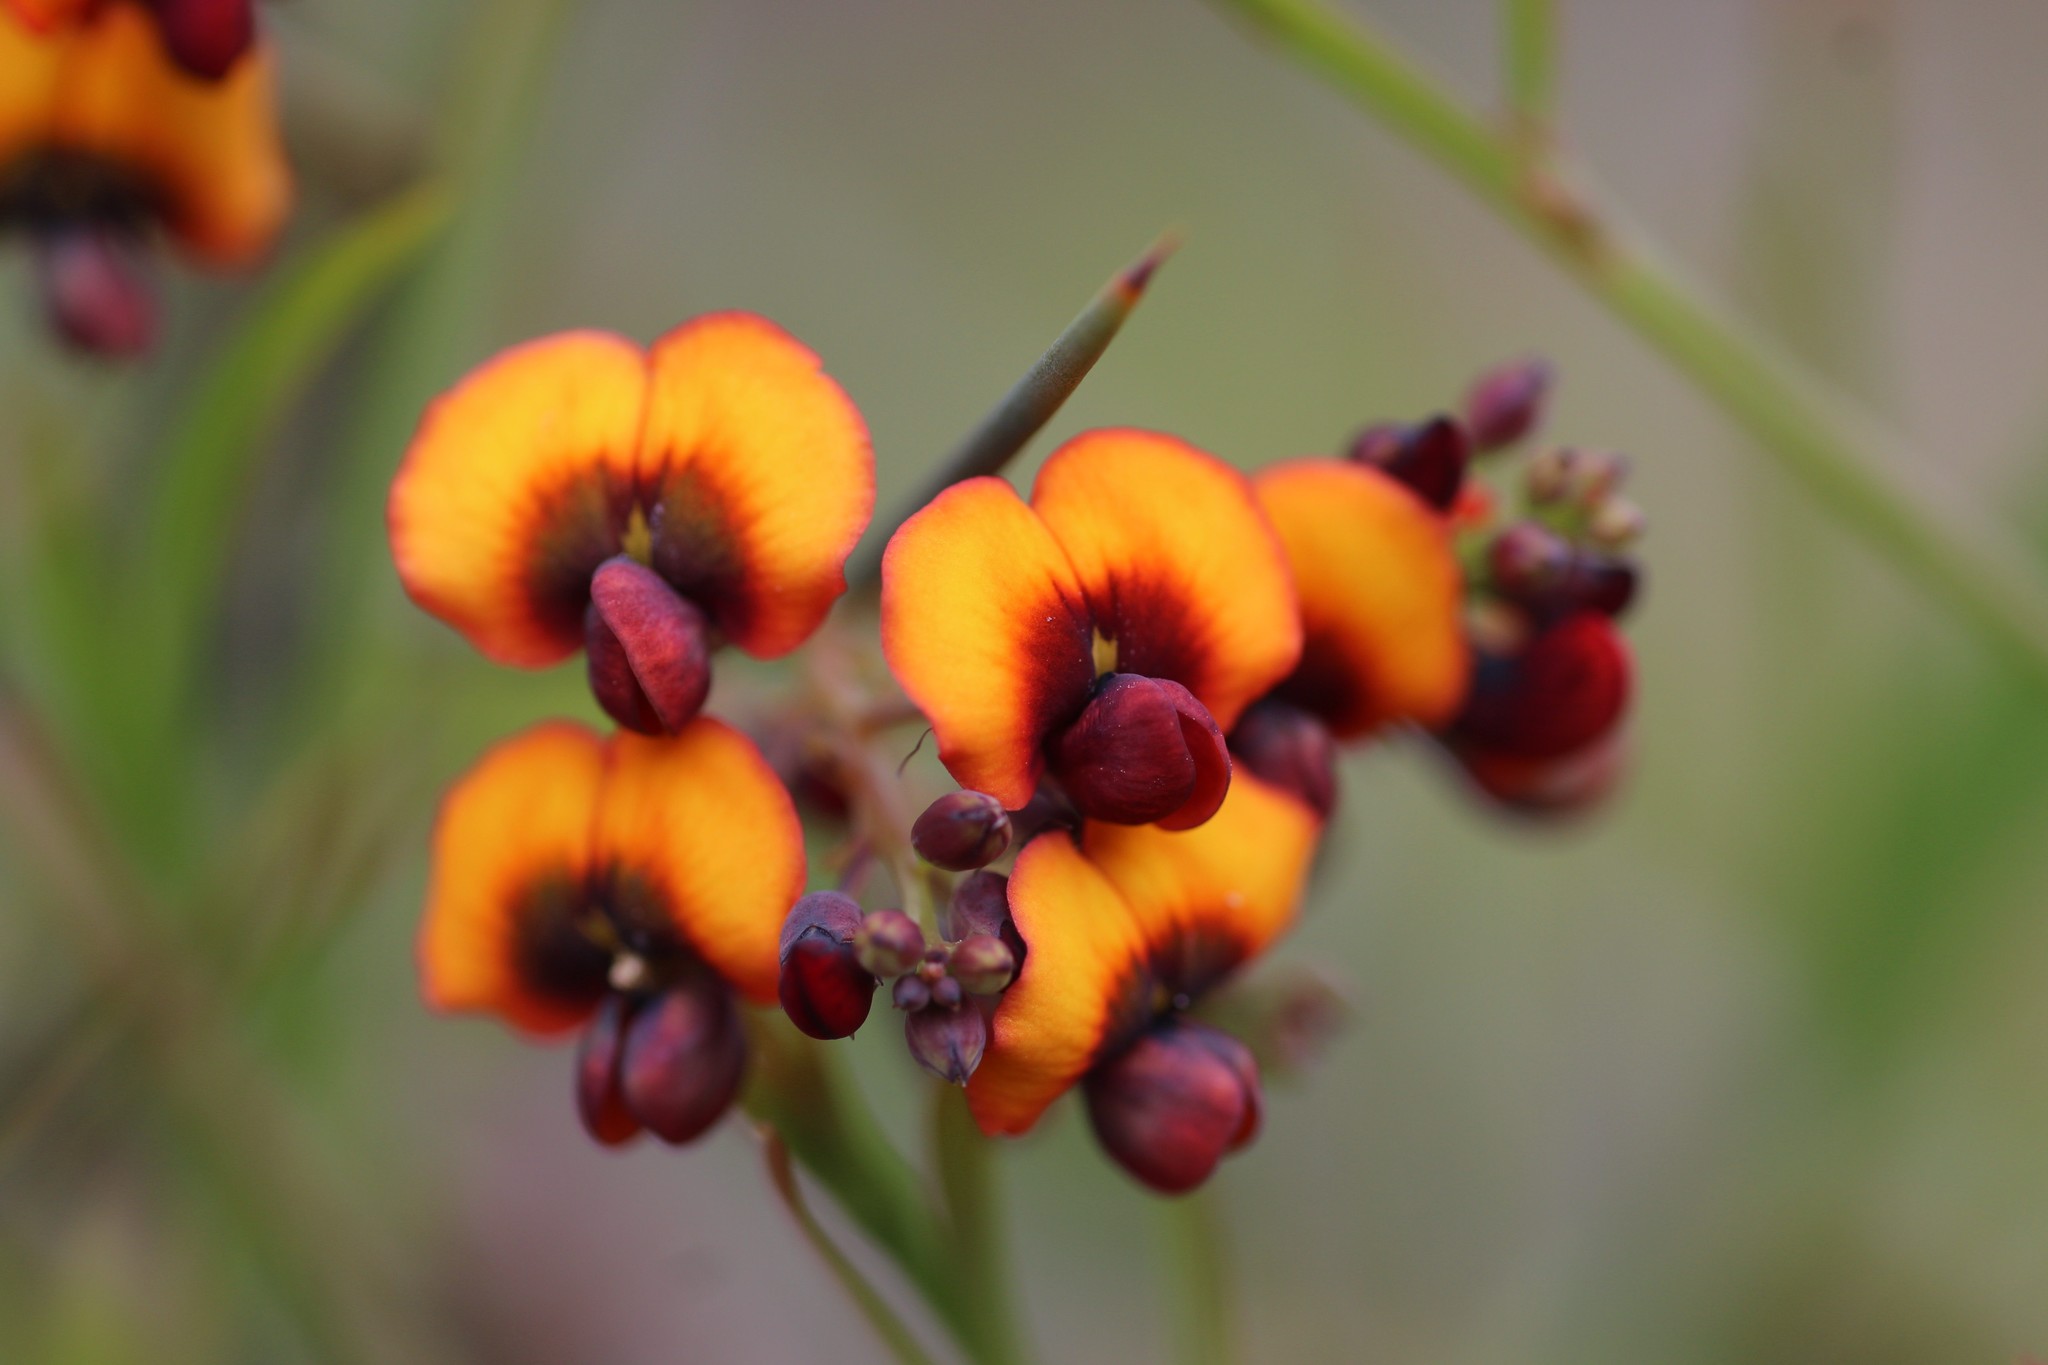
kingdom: Plantae
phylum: Tracheophyta
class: Magnoliopsida
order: Fabales
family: Fabaceae
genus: Daviesia
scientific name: Daviesia horrida
